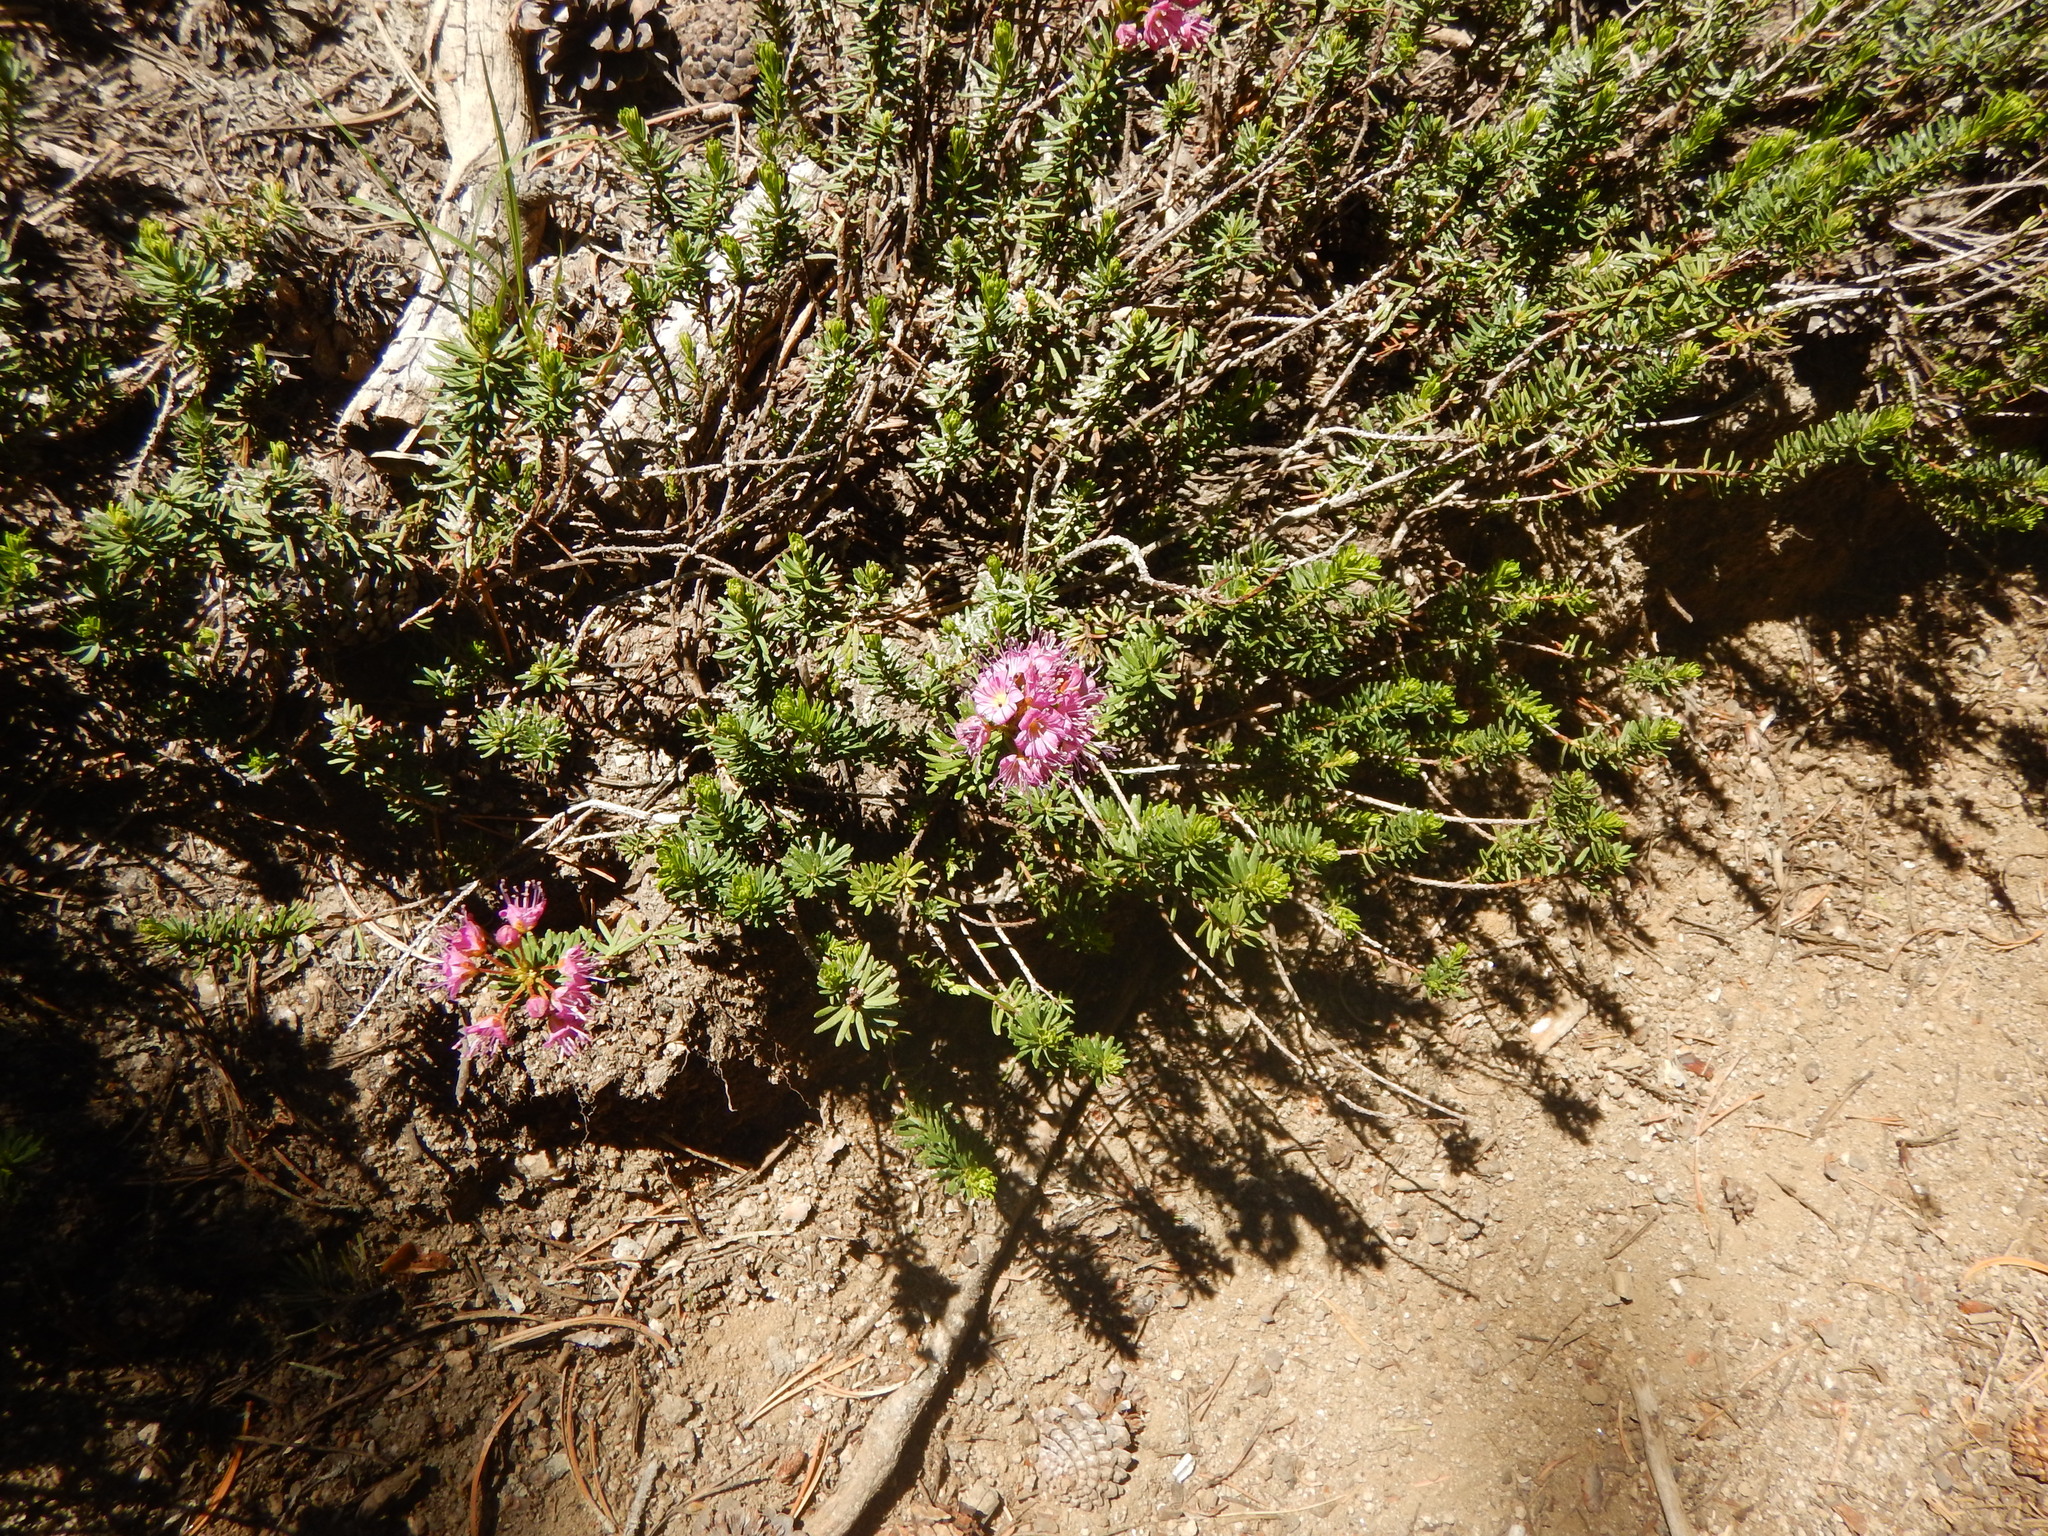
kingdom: Plantae
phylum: Tracheophyta
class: Magnoliopsida
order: Ericales
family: Ericaceae
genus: Phyllodoce
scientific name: Phyllodoce breweri
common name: Brewer's mountain-heather
